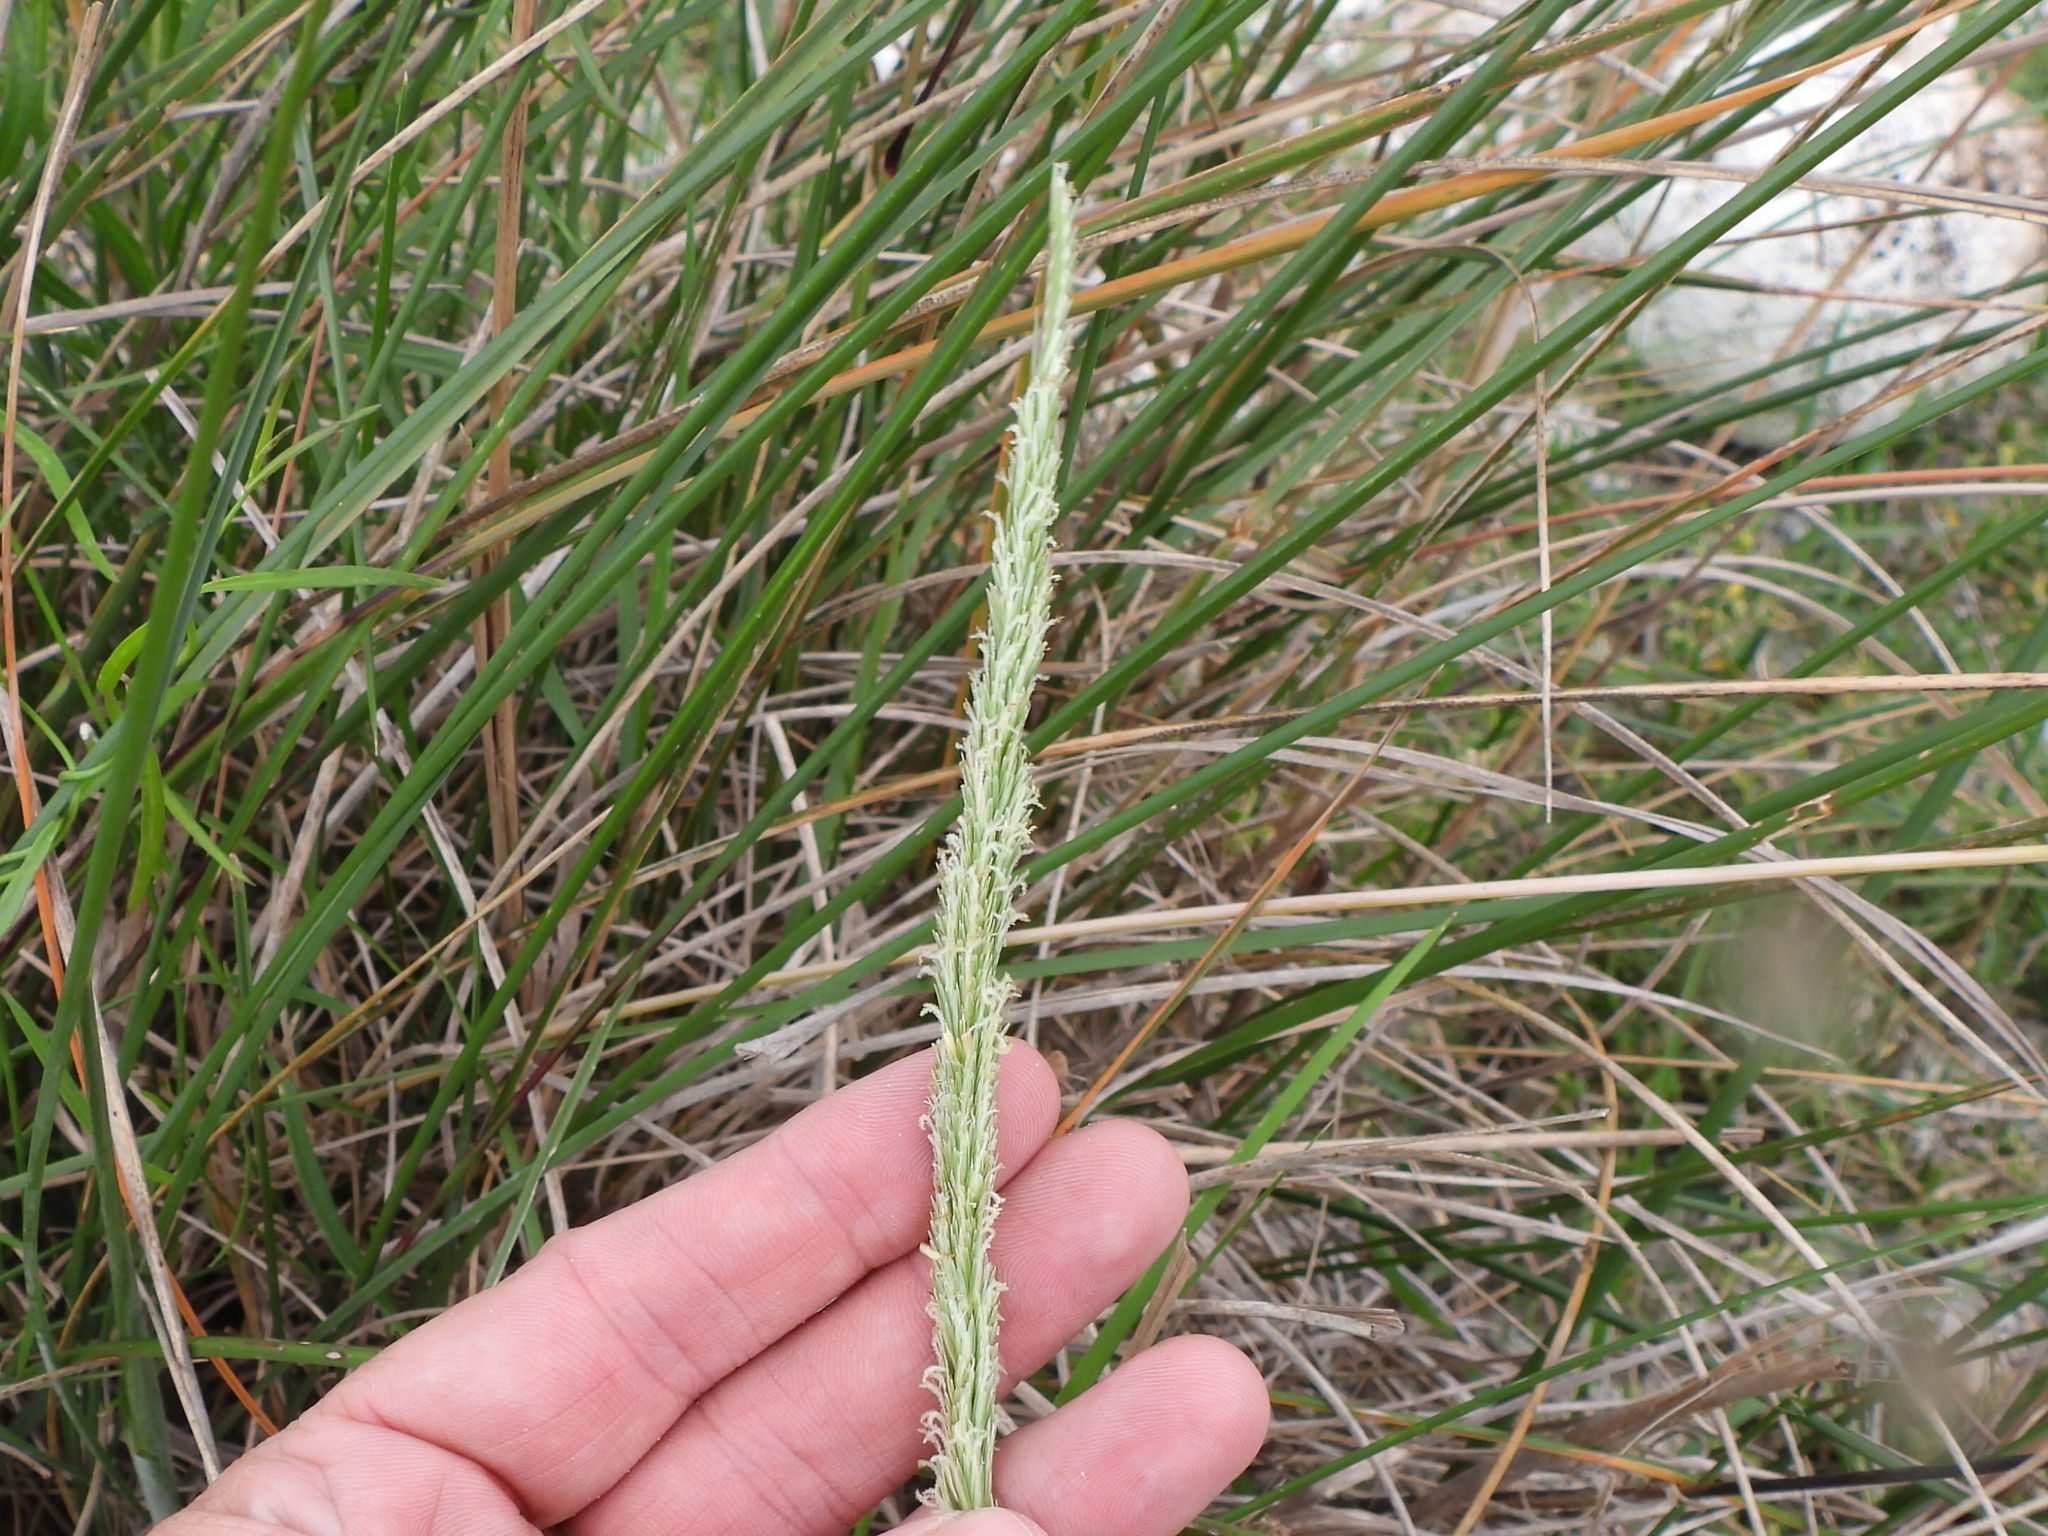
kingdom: Plantae
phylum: Tracheophyta
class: Liliopsida
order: Poales
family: Poaceae
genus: Sporobolus
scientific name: Sporobolus spartinae
